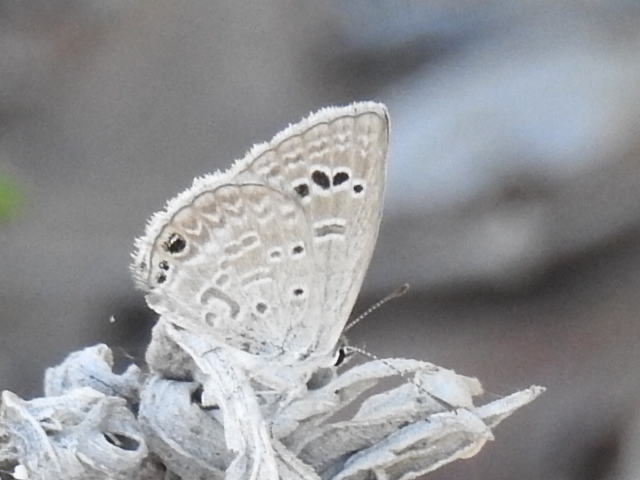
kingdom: Animalia
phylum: Arthropoda
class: Insecta
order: Lepidoptera
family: Lycaenidae
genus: Echinargus
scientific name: Echinargus isola
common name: Reakirt's blue
